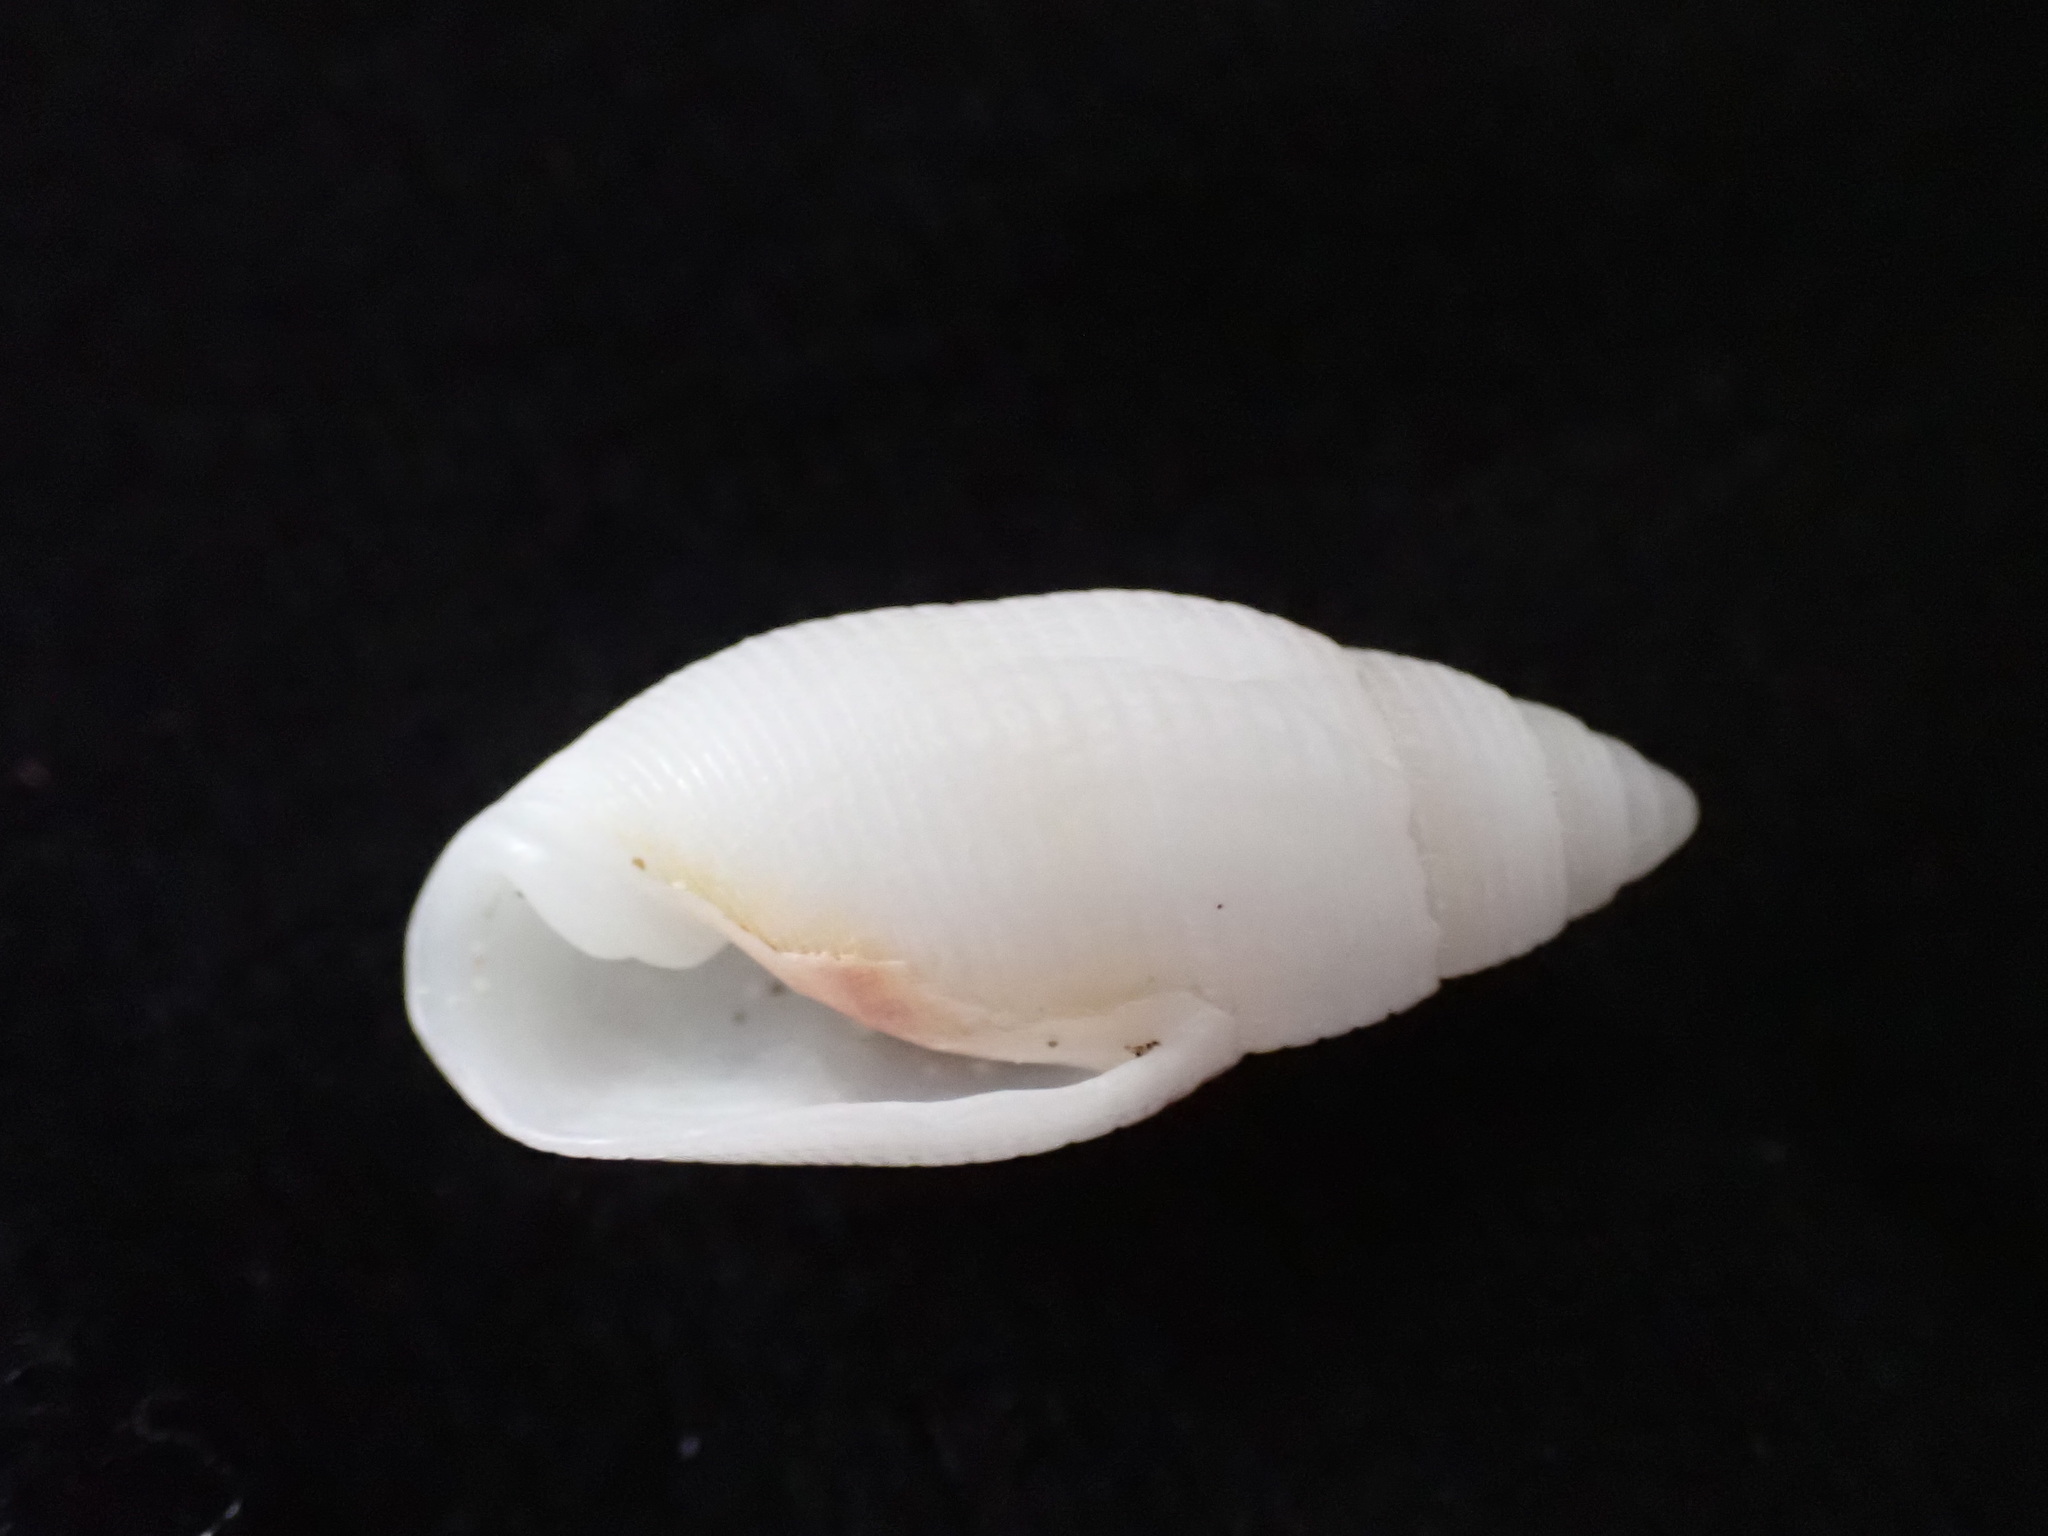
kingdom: Animalia
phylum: Mollusca
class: Gastropoda
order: Cephalaspidea
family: Acteonidae
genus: Pupa
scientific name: Pupa affinis
